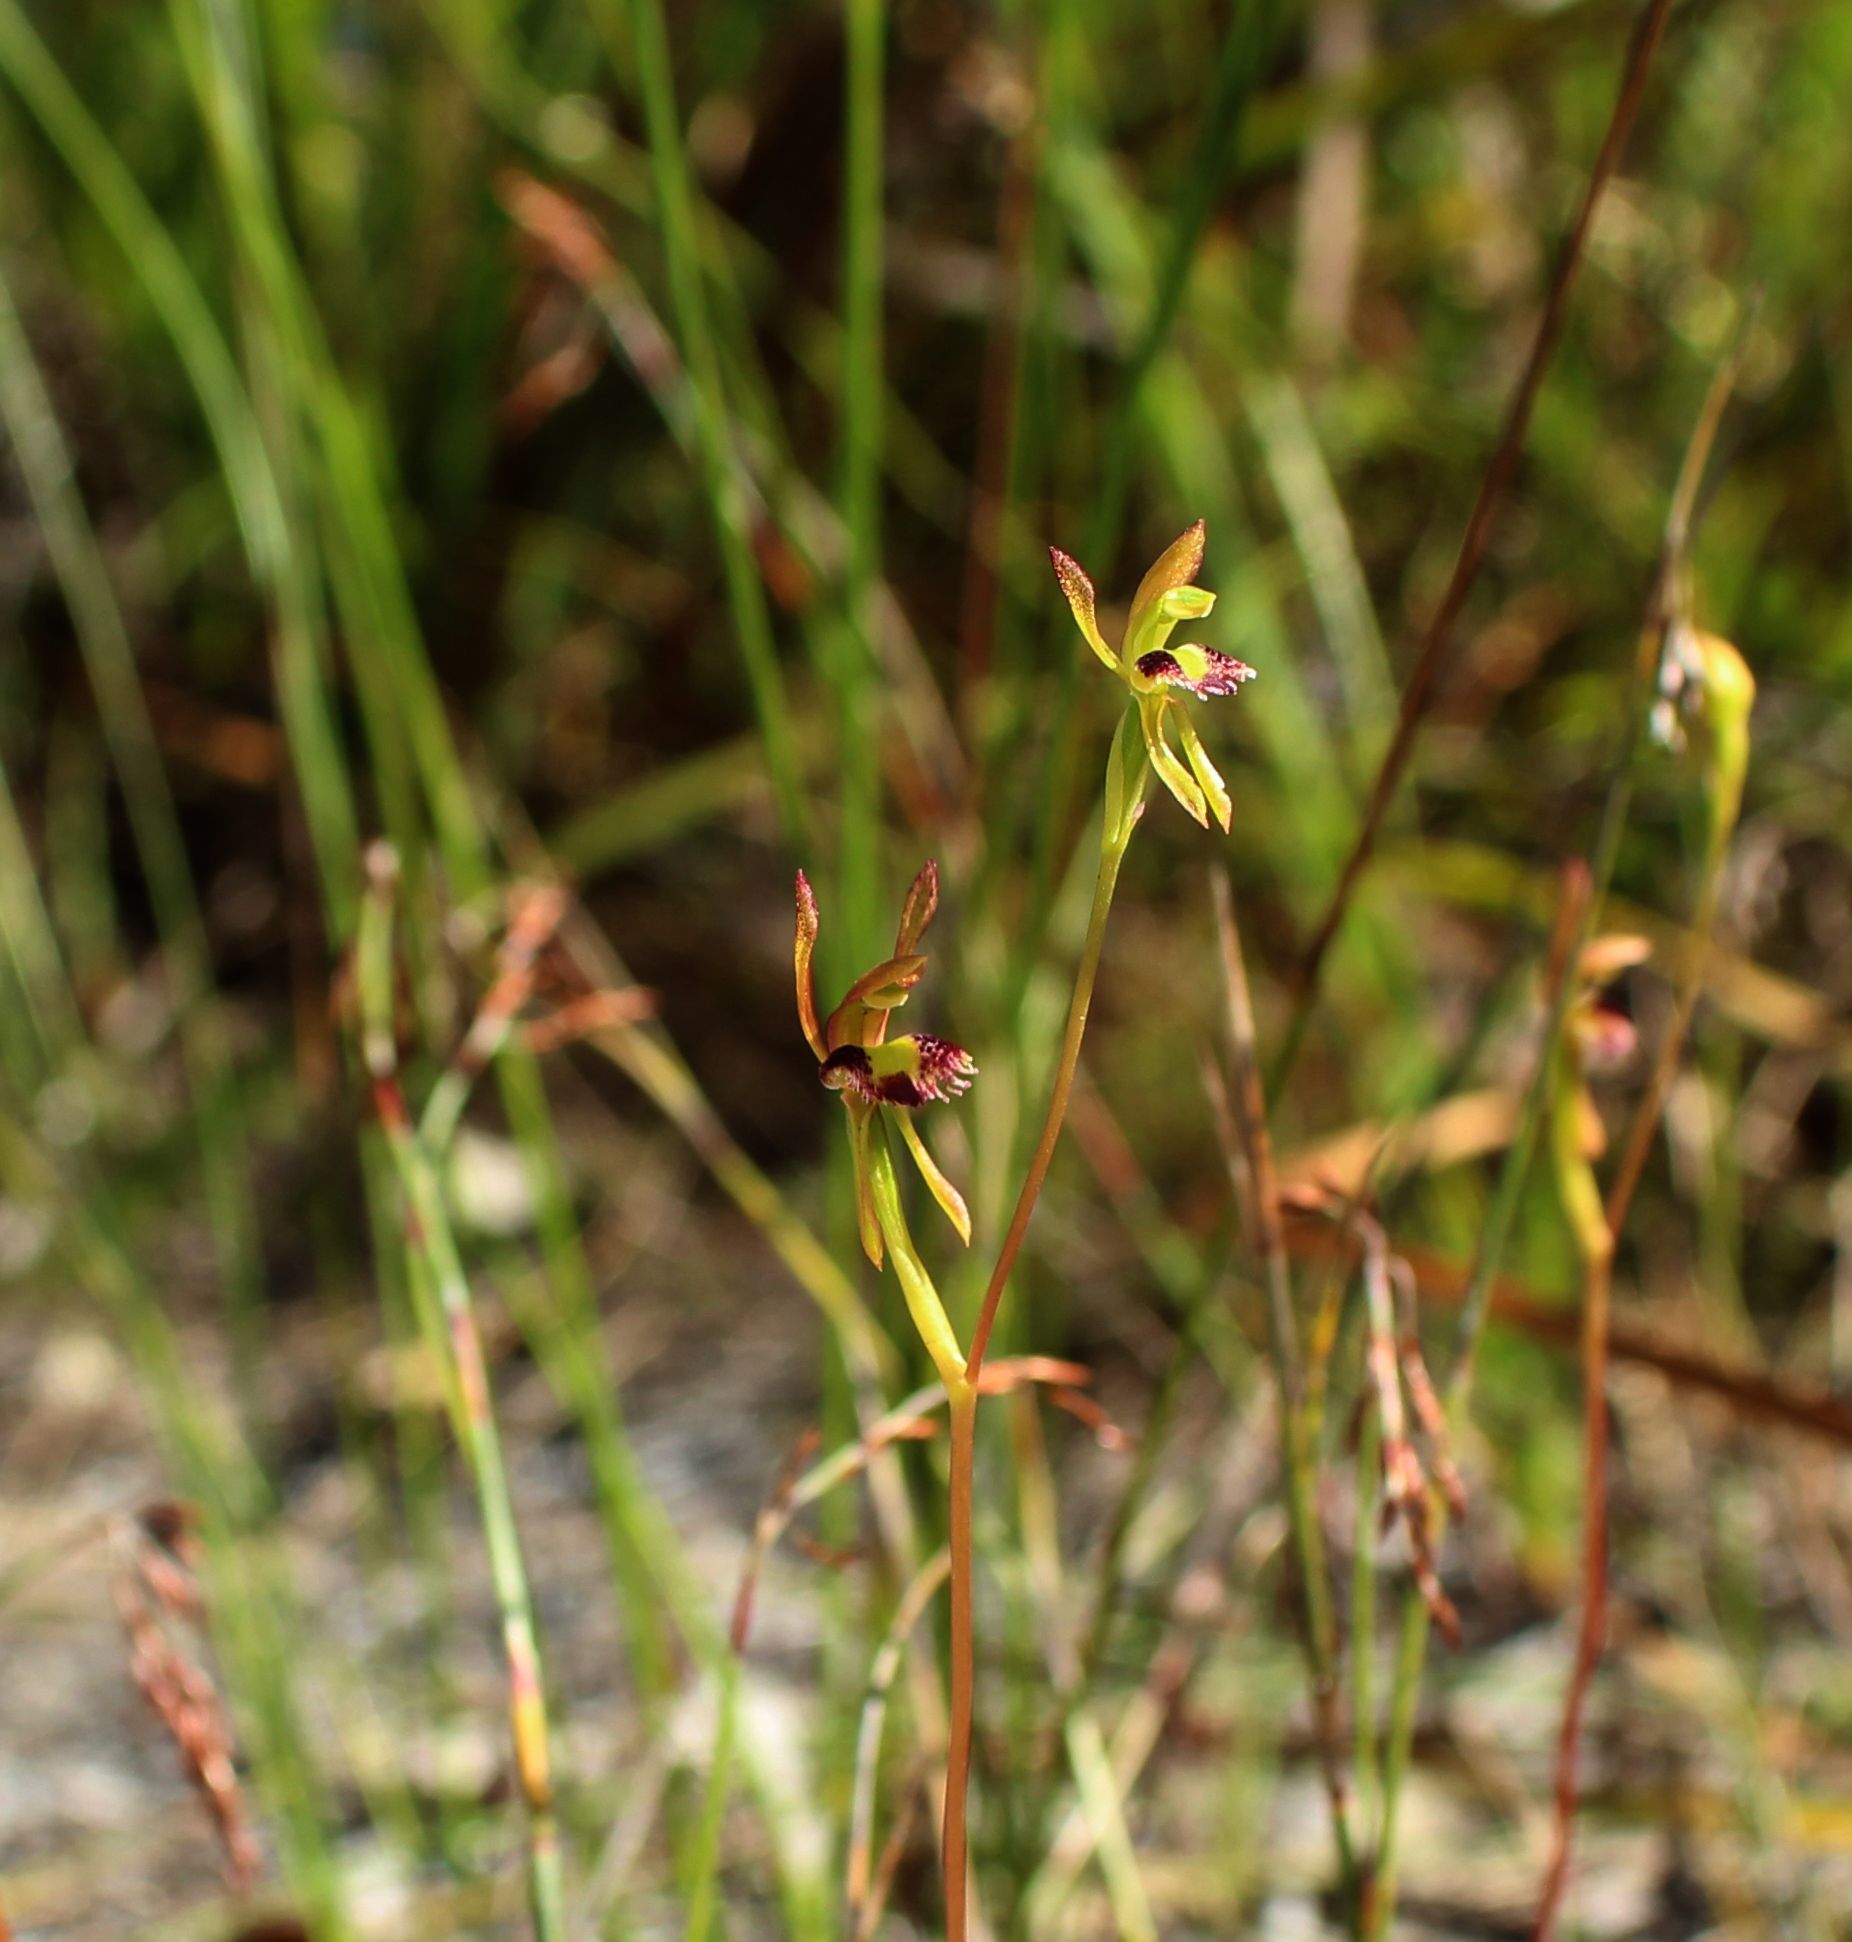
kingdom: Plantae
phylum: Tracheophyta
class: Liliopsida
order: Asparagales
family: Orchidaceae
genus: Leporella
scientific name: Leporella fimbriata
